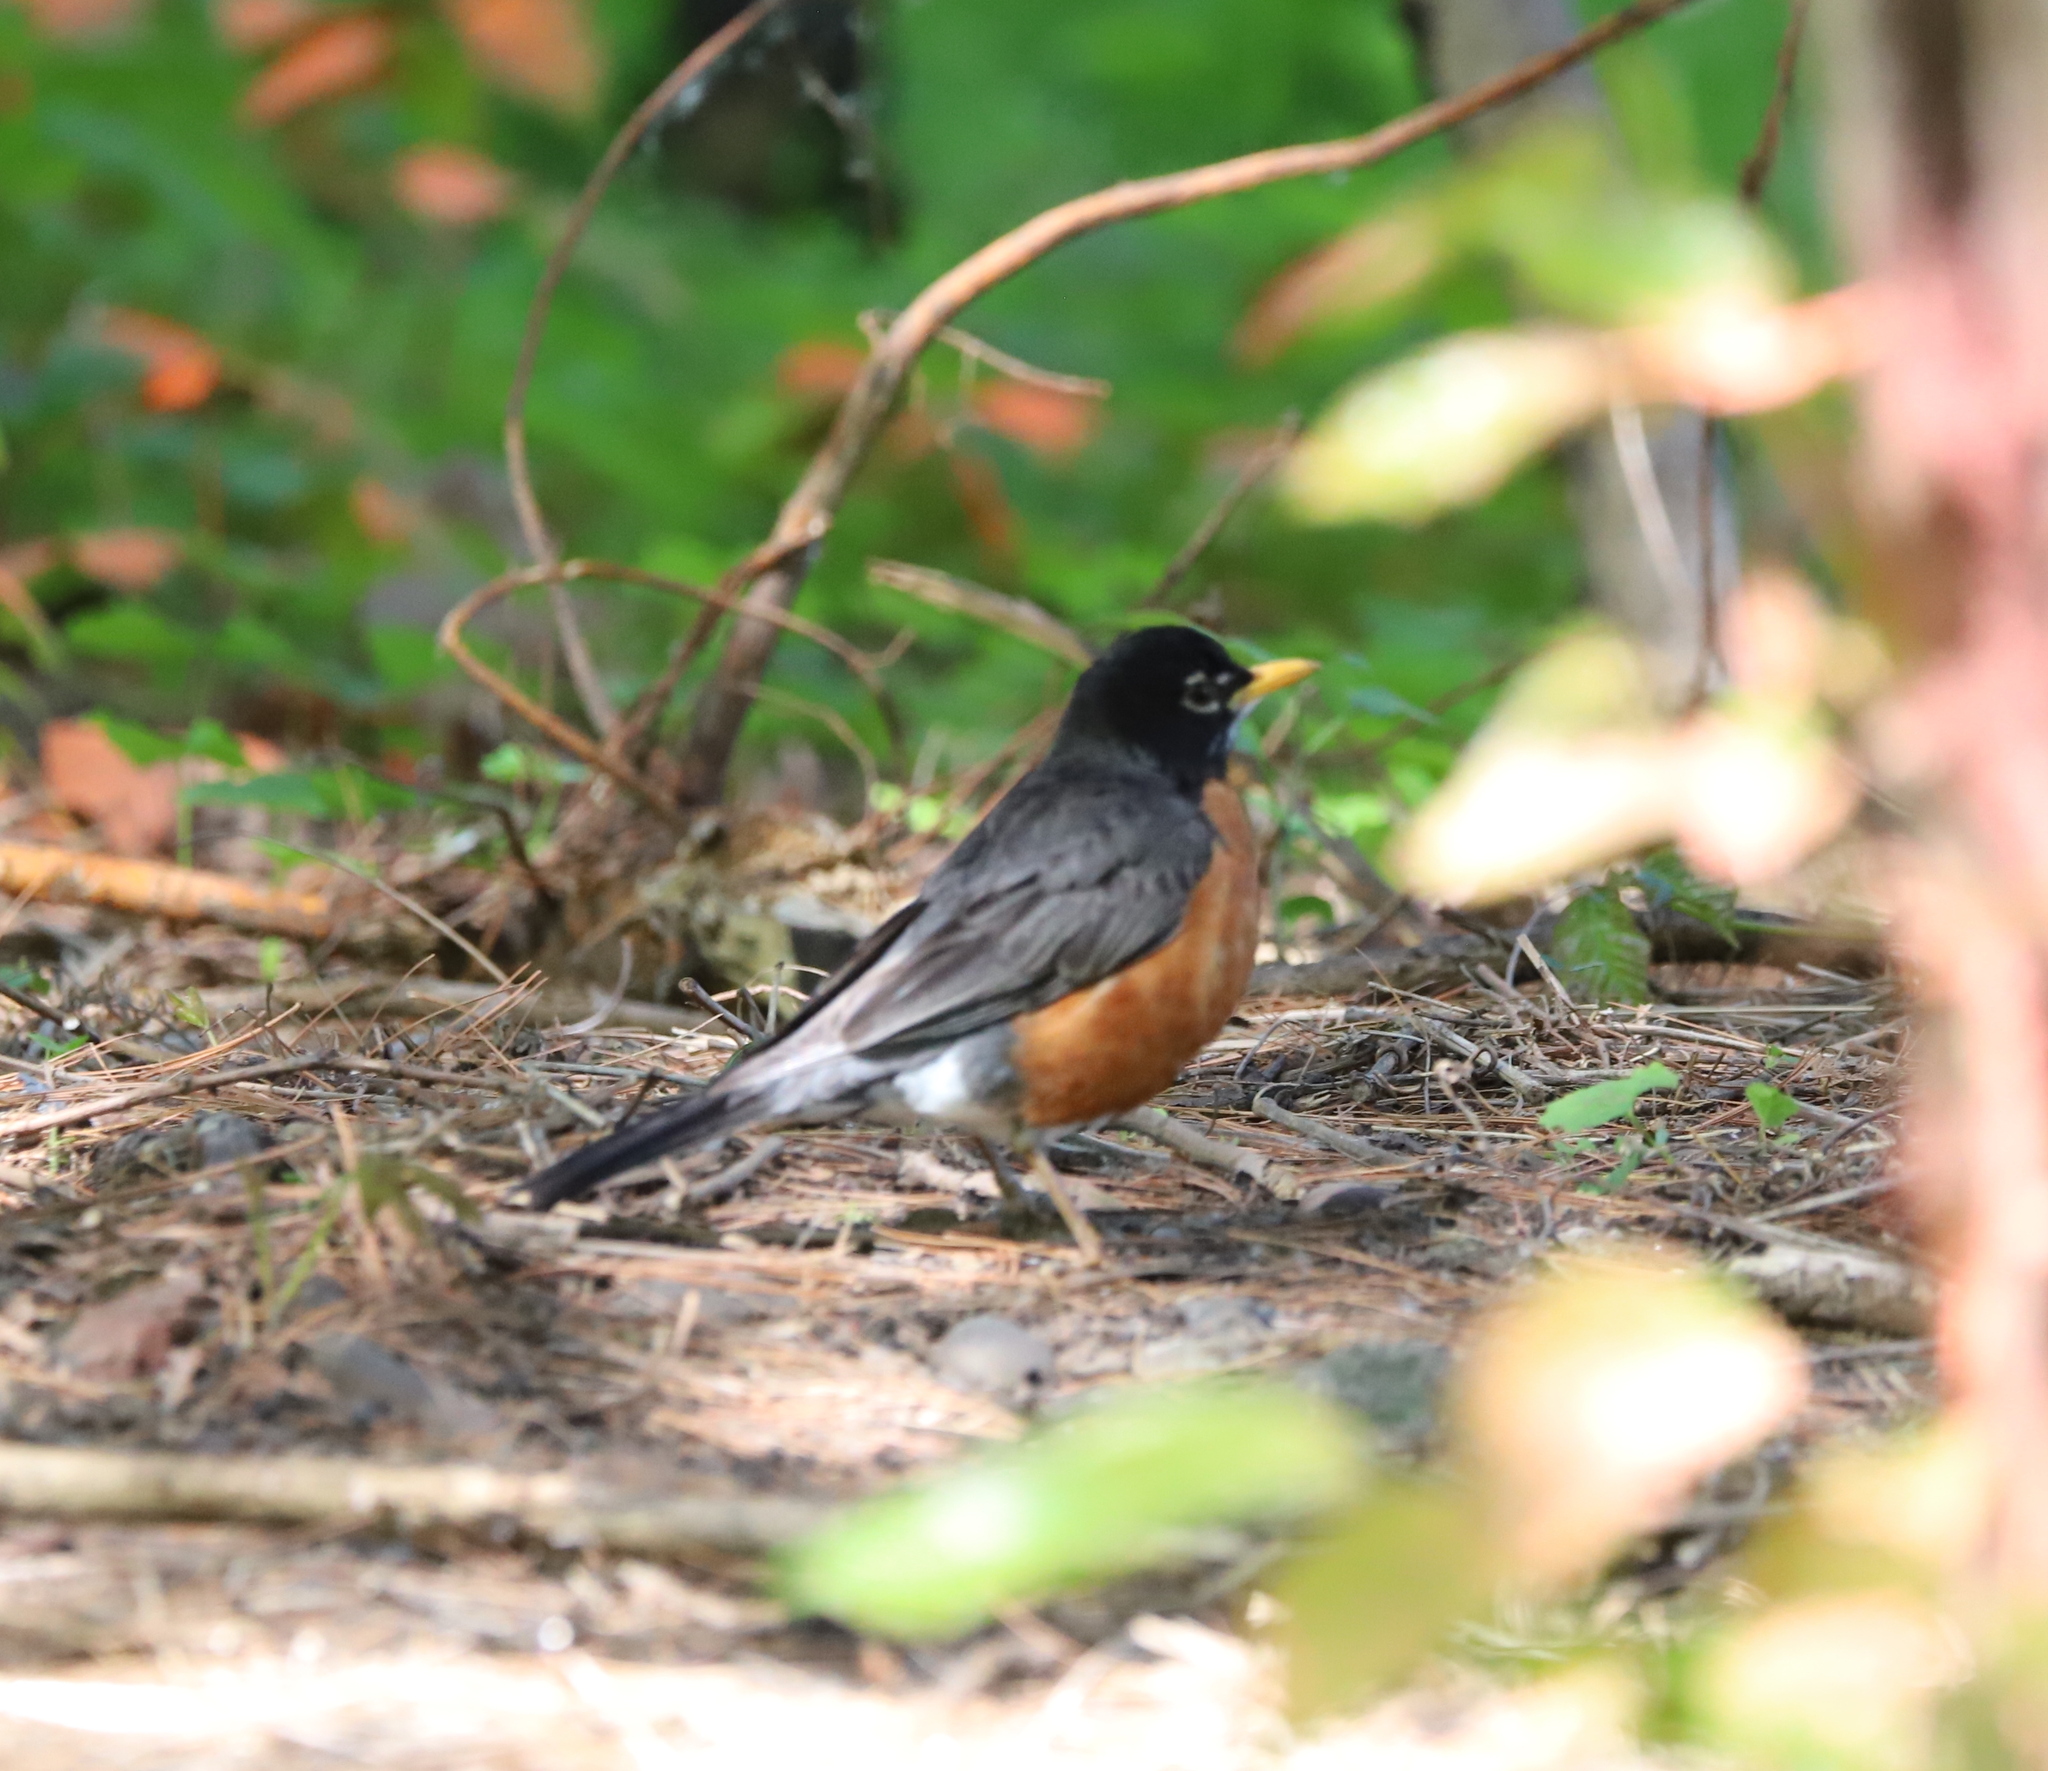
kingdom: Animalia
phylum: Chordata
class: Aves
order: Passeriformes
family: Turdidae
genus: Turdus
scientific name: Turdus migratorius
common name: American robin
